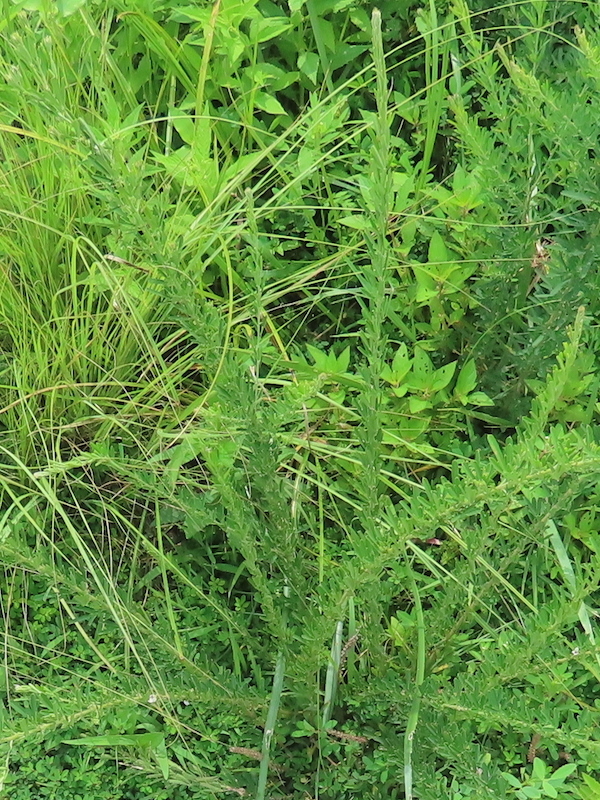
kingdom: Plantae
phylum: Tracheophyta
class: Magnoliopsida
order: Fabales
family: Fabaceae
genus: Lespedeza
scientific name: Lespedeza cuneata
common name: Chinese bush-clover
